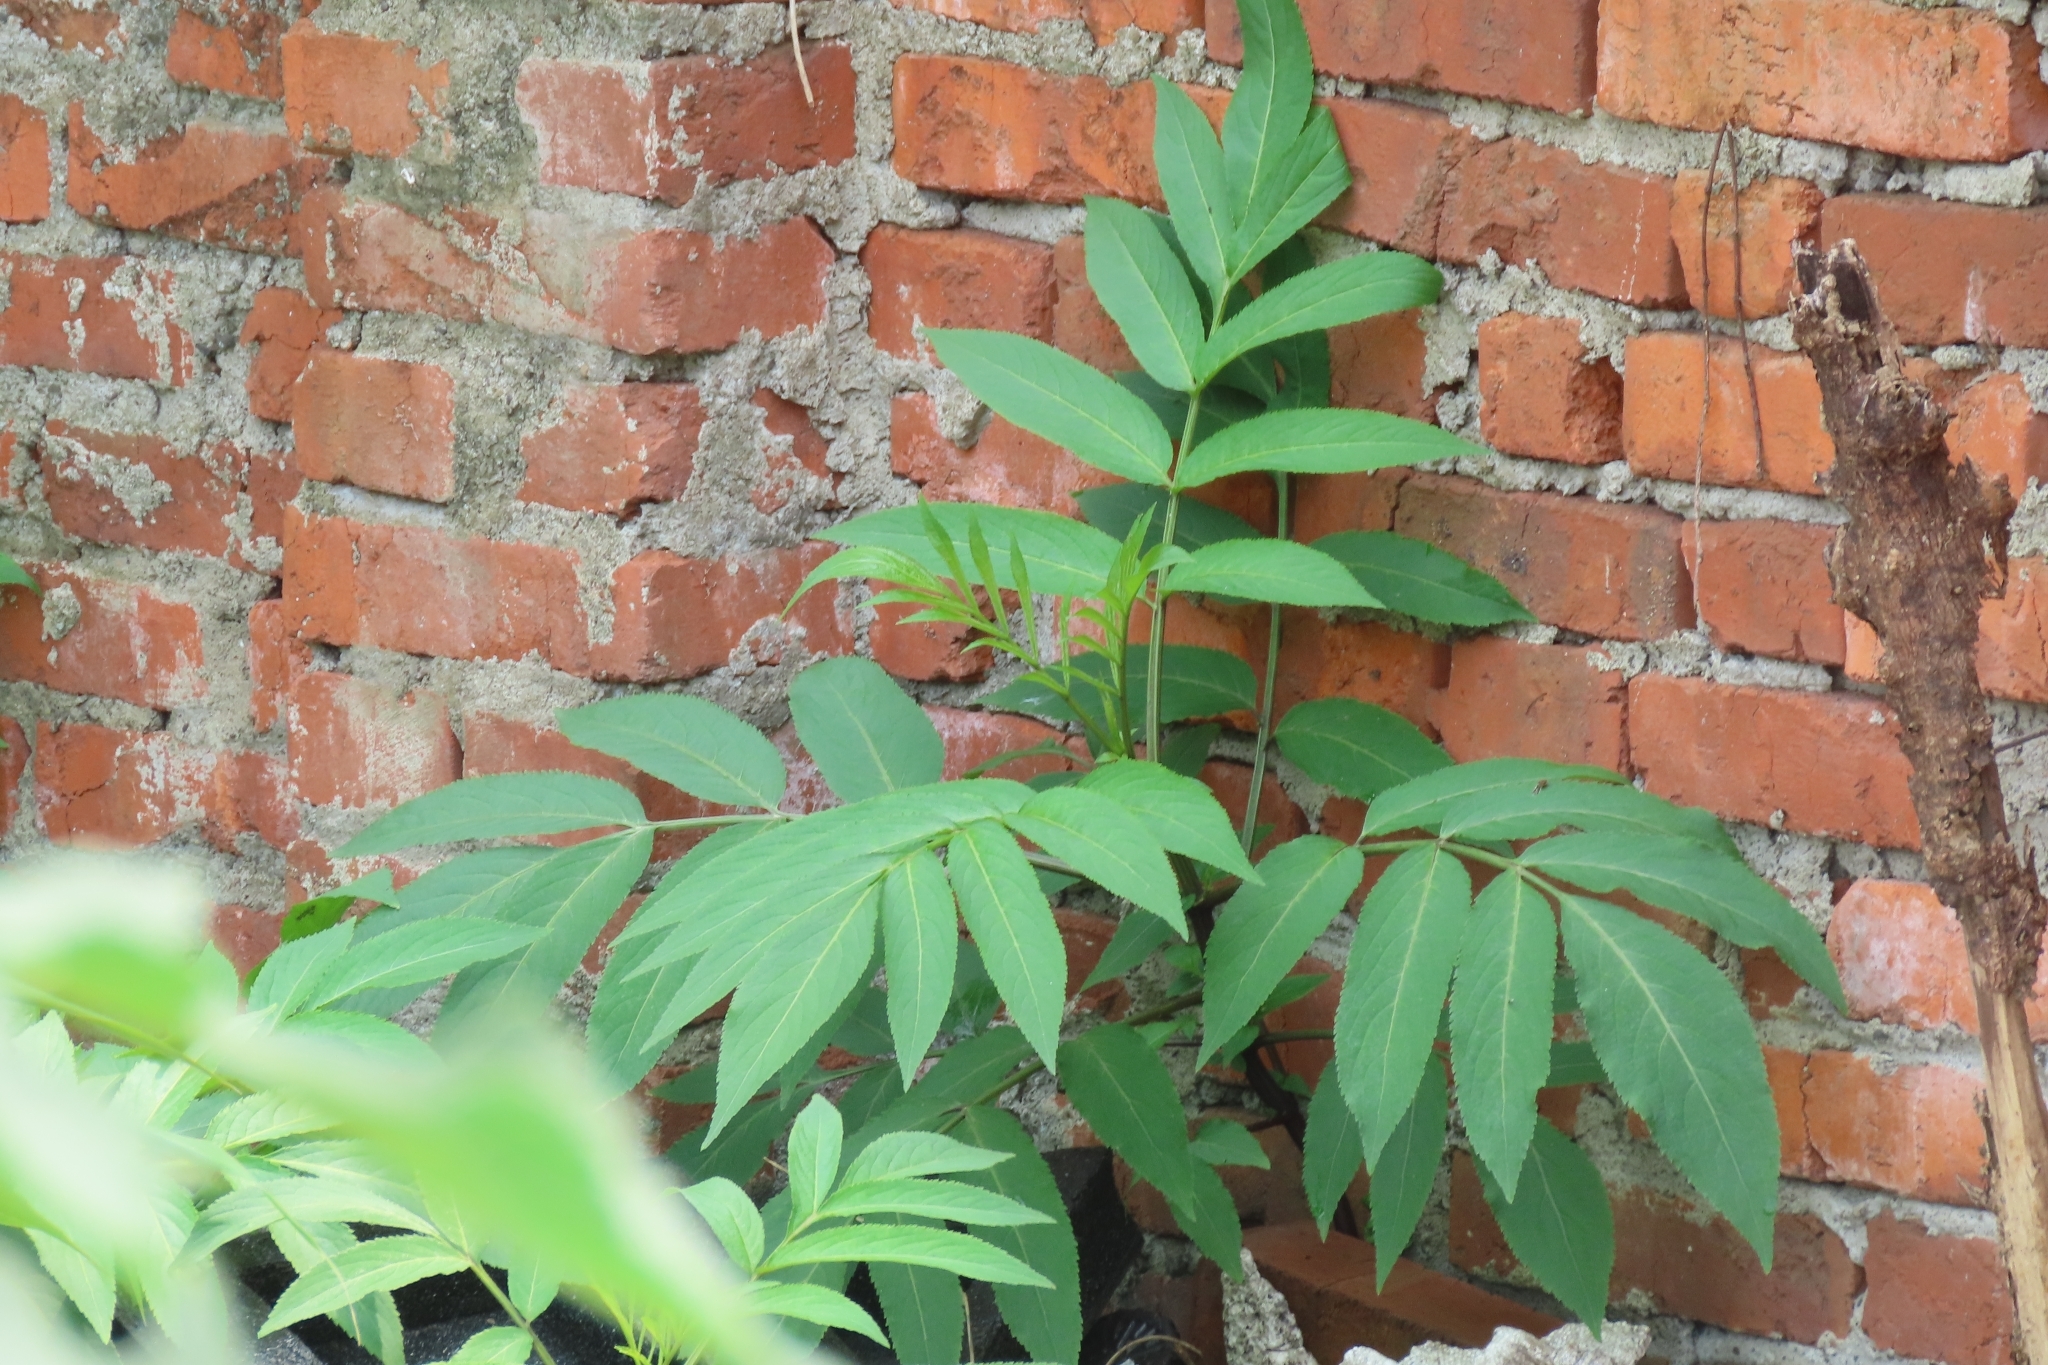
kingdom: Plantae
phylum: Tracheophyta
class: Magnoliopsida
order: Dipsacales
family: Viburnaceae
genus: Sambucus
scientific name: Sambucus javanica
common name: Chinese elder
